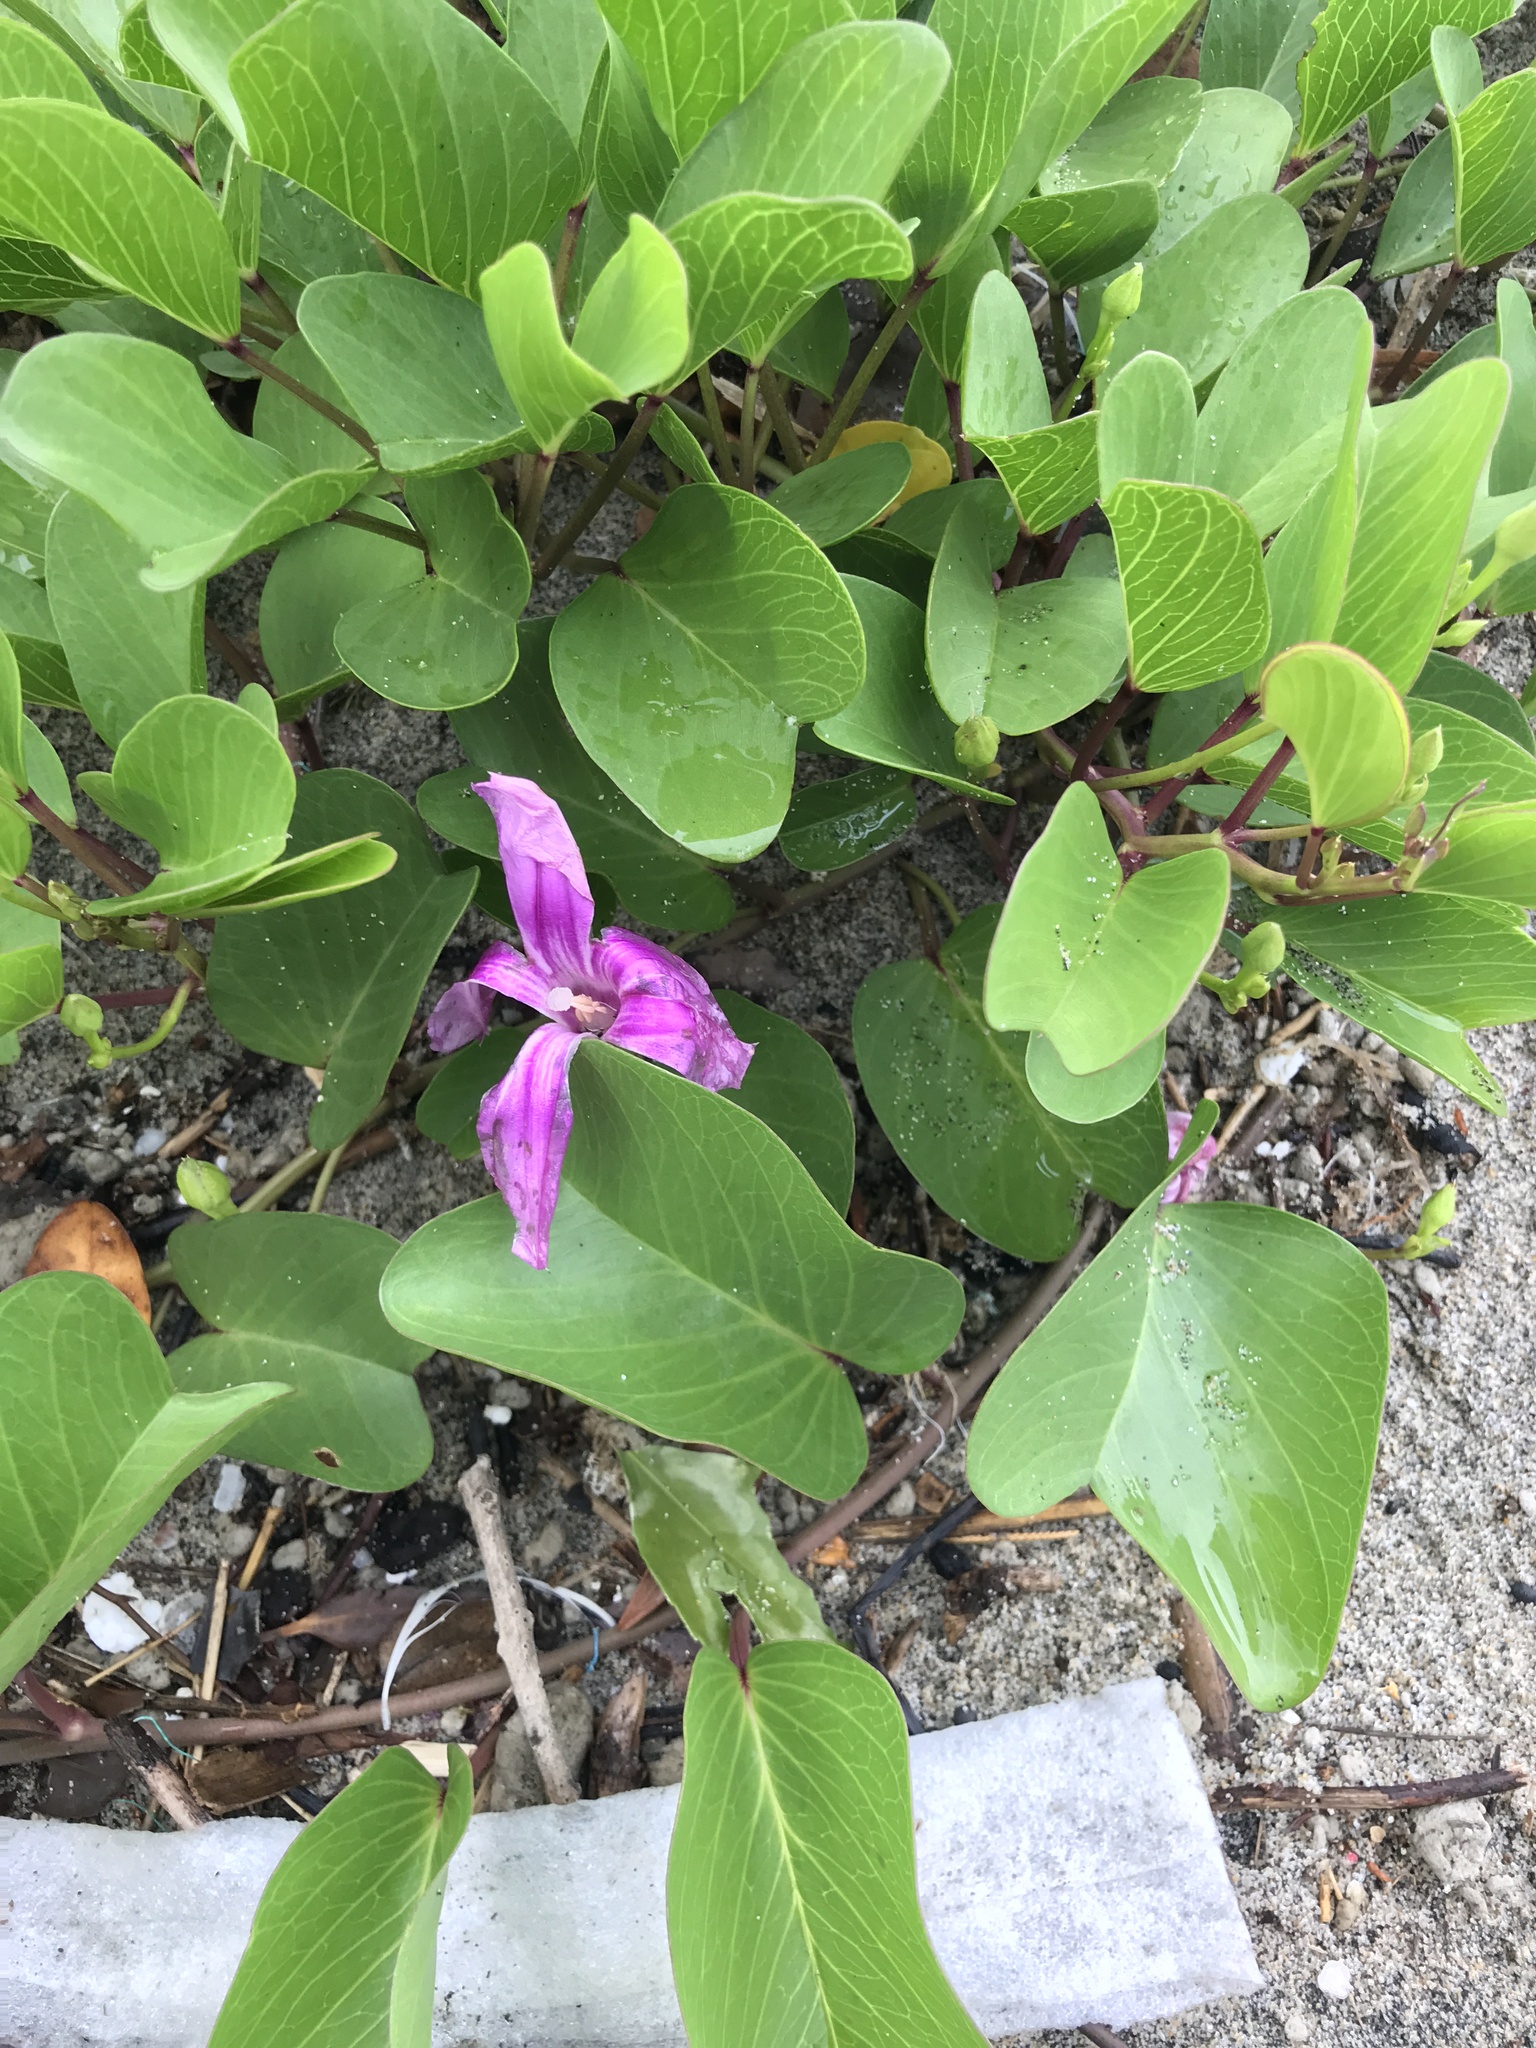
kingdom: Plantae
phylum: Tracheophyta
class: Magnoliopsida
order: Solanales
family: Convolvulaceae
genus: Ipomoea
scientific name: Ipomoea pes-caprae
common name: Beach morning glory
